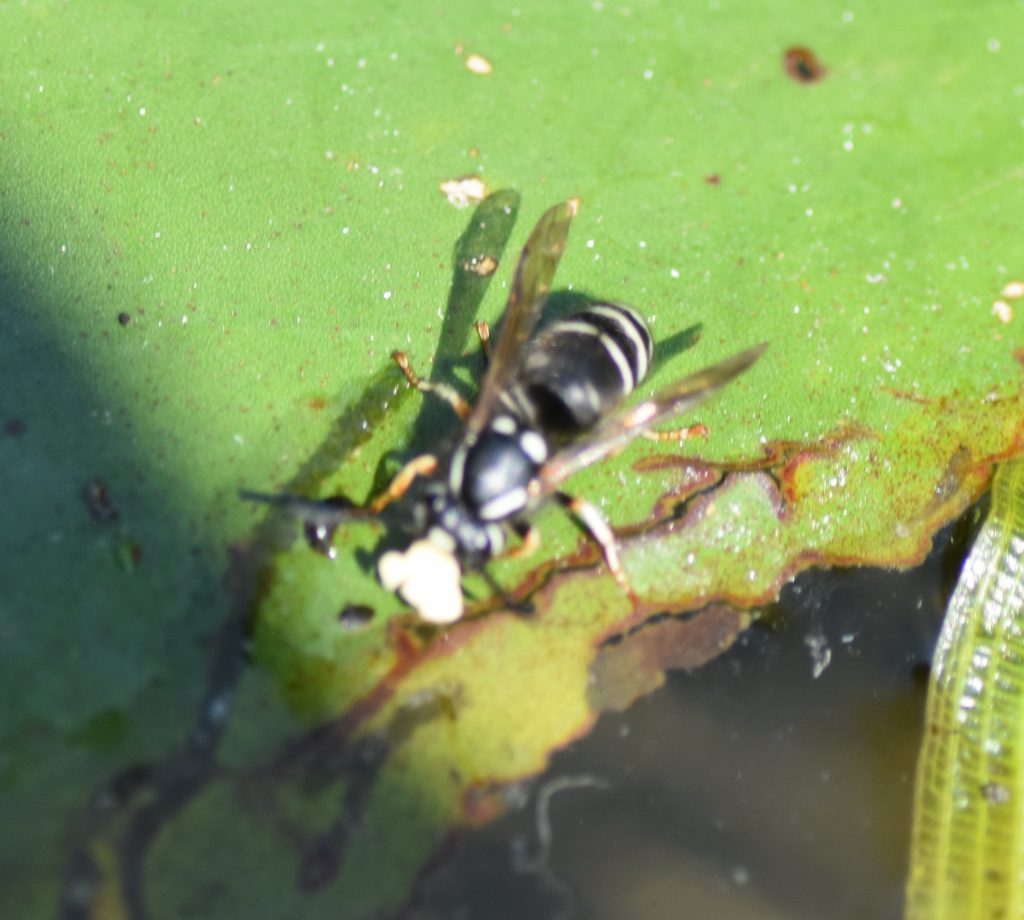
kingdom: Animalia
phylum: Arthropoda
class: Insecta
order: Hymenoptera
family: Vespidae
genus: Vespula
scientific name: Vespula consobrina
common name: Blackjacket
